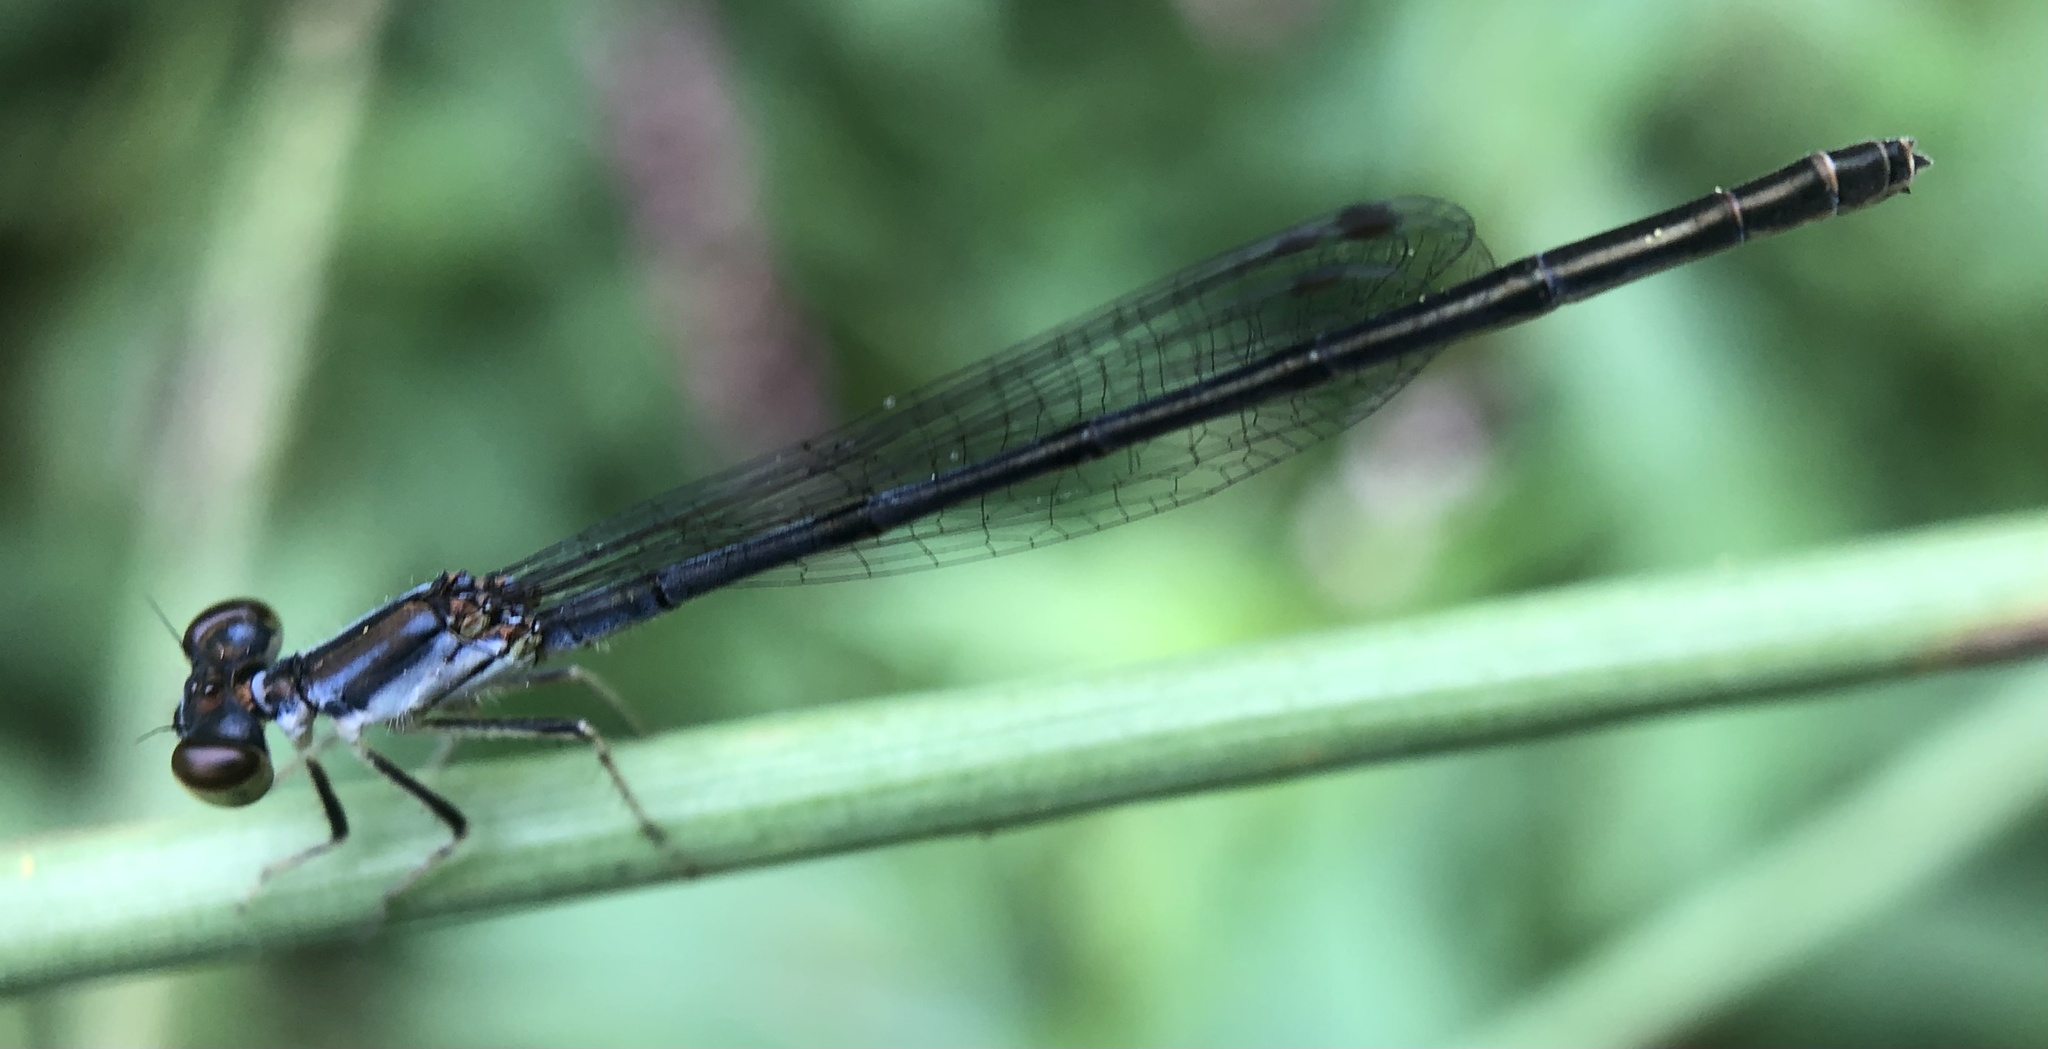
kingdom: Animalia
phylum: Arthropoda
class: Insecta
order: Odonata
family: Coenagrionidae
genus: Ischnura
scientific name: Ischnura posita
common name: Fragile forktail
